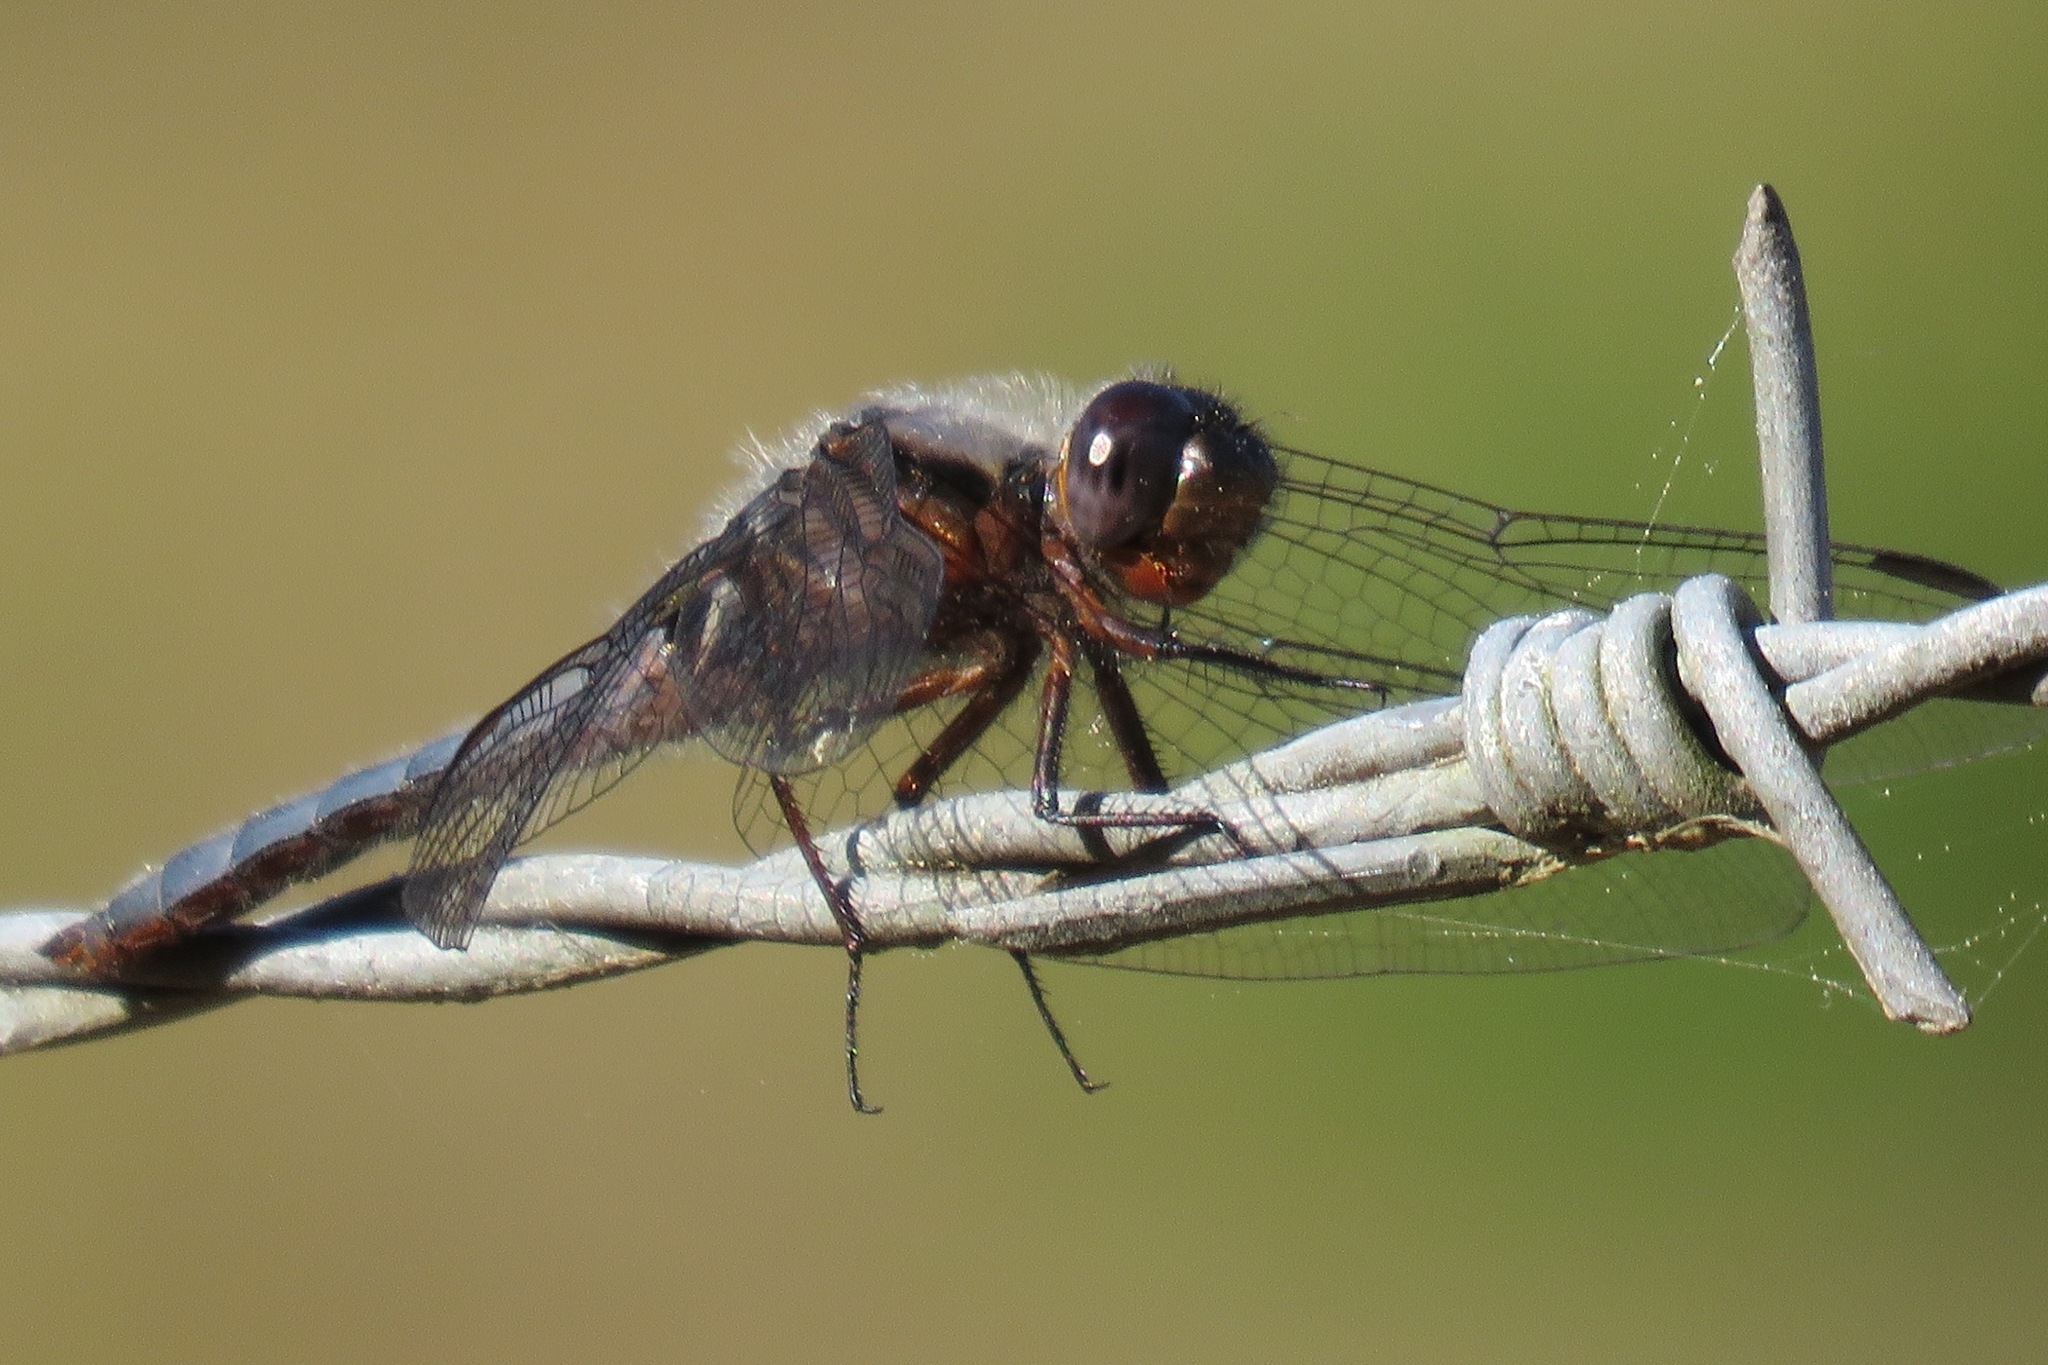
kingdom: Animalia
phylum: Arthropoda
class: Insecta
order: Odonata
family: Libellulidae
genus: Ladona
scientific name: Ladona deplanata
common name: Blue corporal
